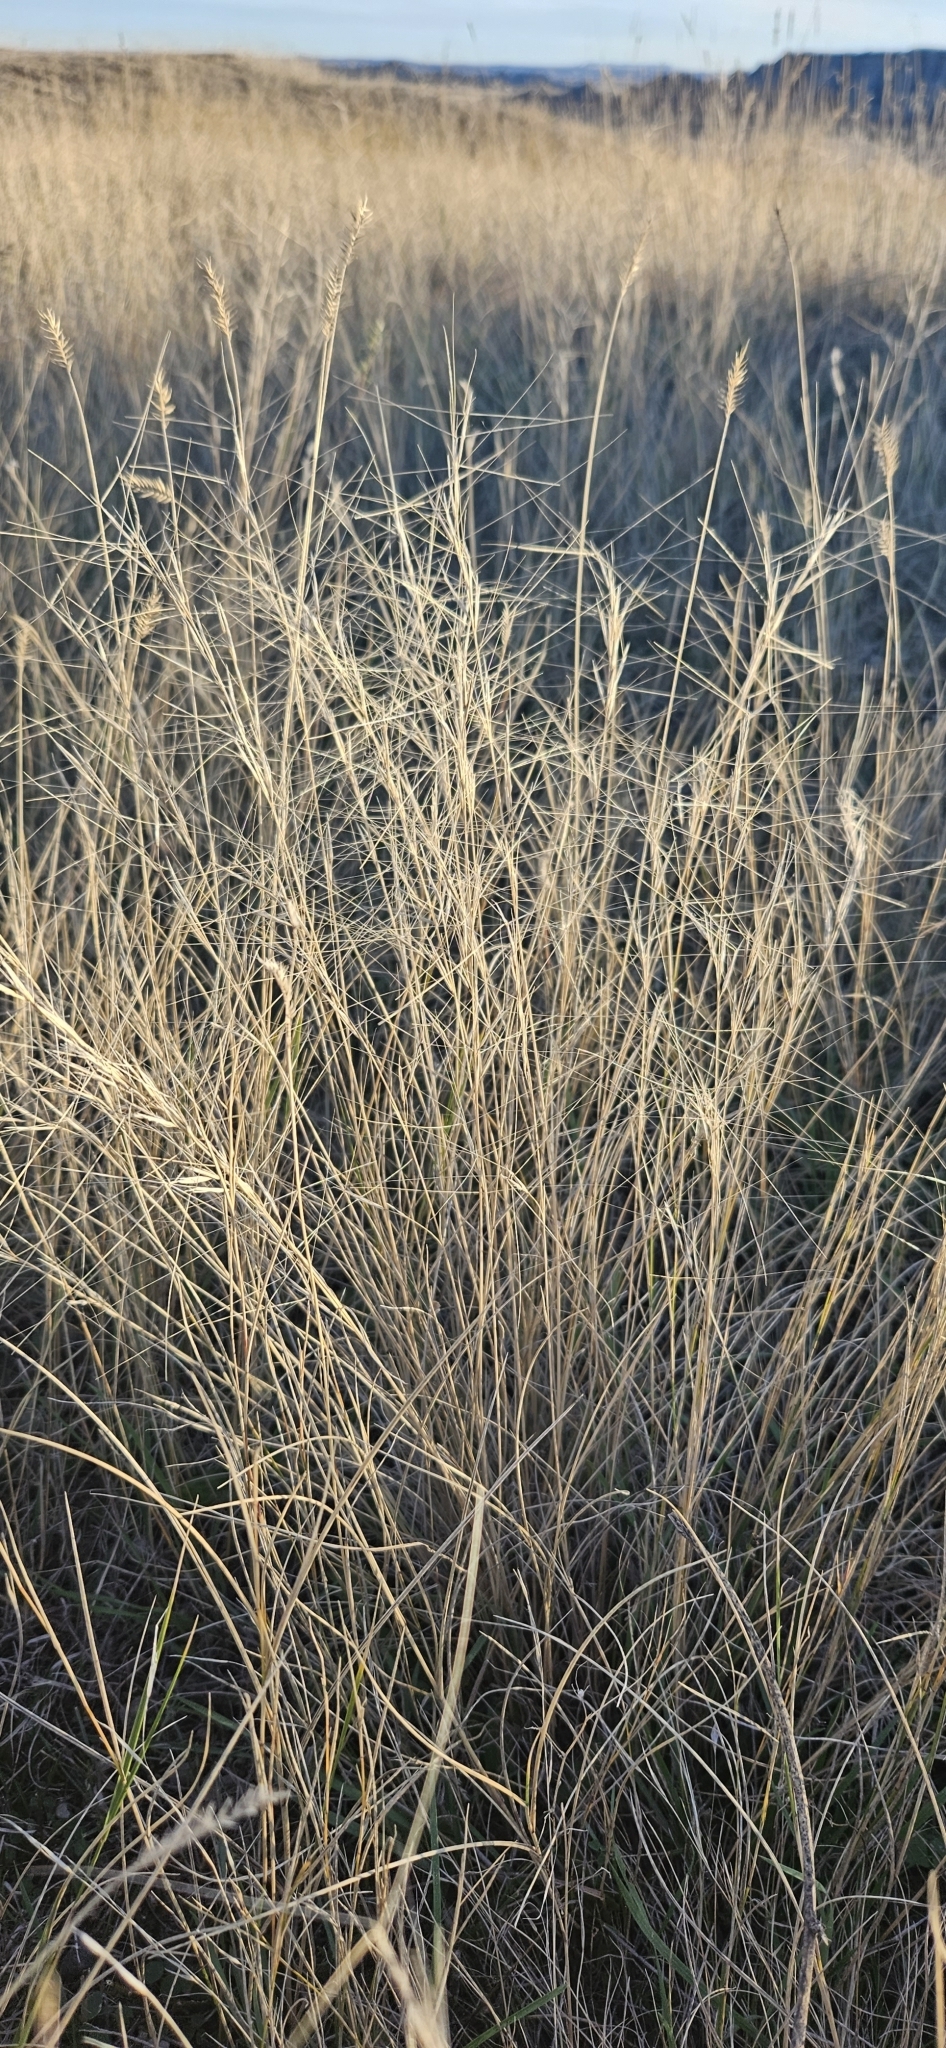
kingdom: Plantae
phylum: Tracheophyta
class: Liliopsida
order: Poales
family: Poaceae
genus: Elymus
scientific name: Elymus elymoides
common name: Bottlebrush squirreltail
